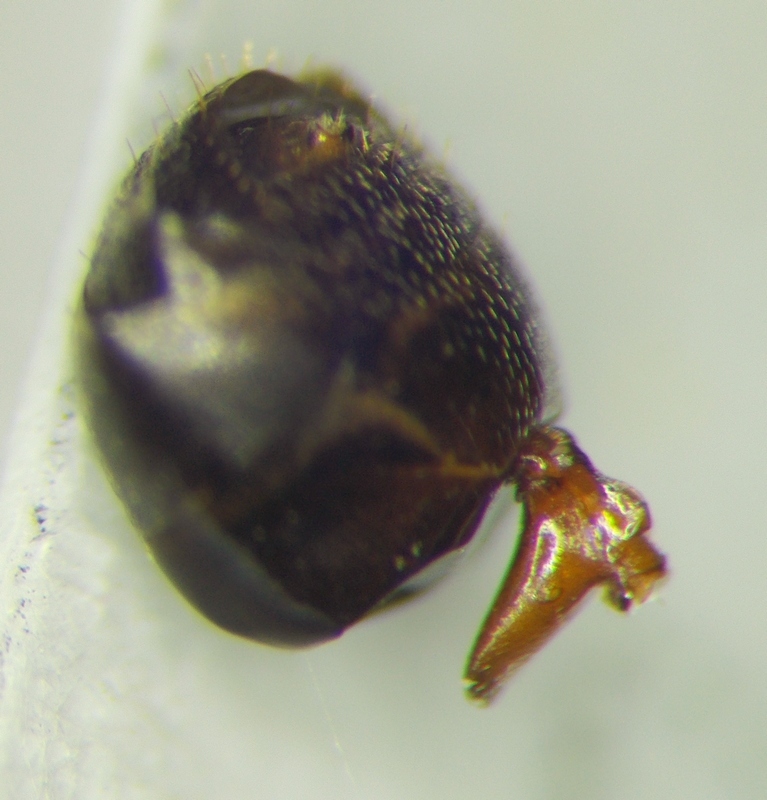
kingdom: Animalia
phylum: Arthropoda
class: Insecta
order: Hymenoptera
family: Formicidae
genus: Formica
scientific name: Formica exsecta
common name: Narrow headed ant
